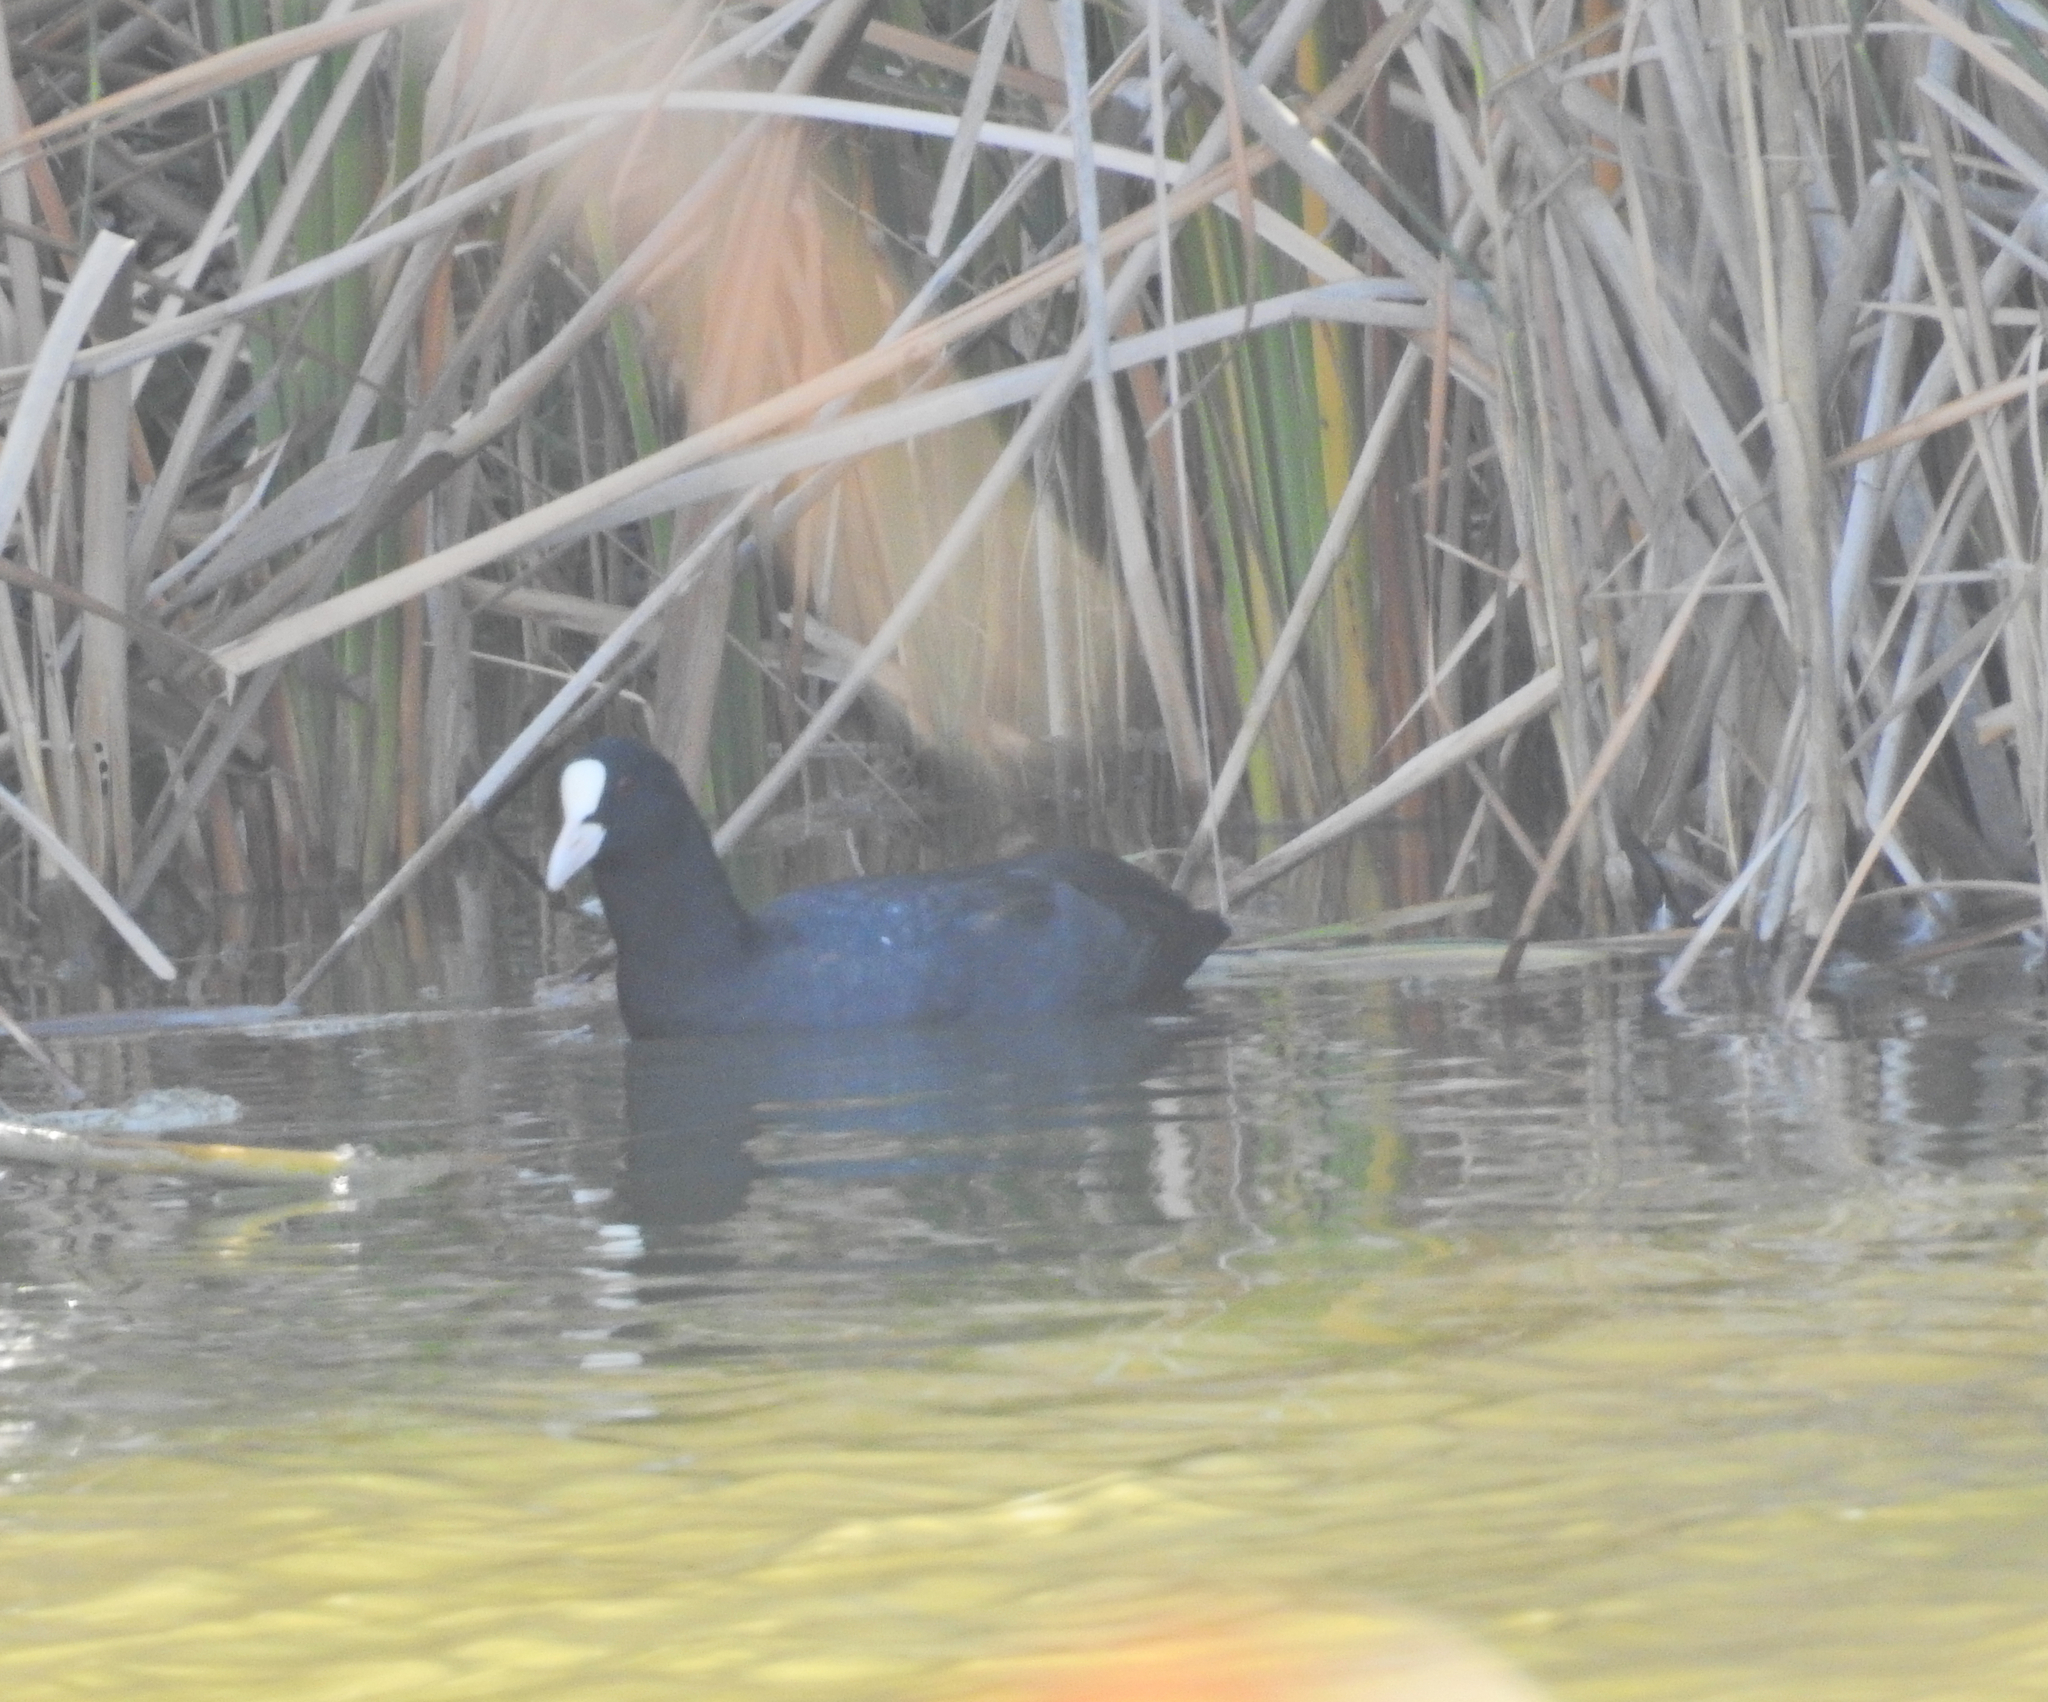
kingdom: Animalia
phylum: Chordata
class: Aves
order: Gruiformes
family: Rallidae
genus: Fulica
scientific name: Fulica atra
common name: Eurasian coot
